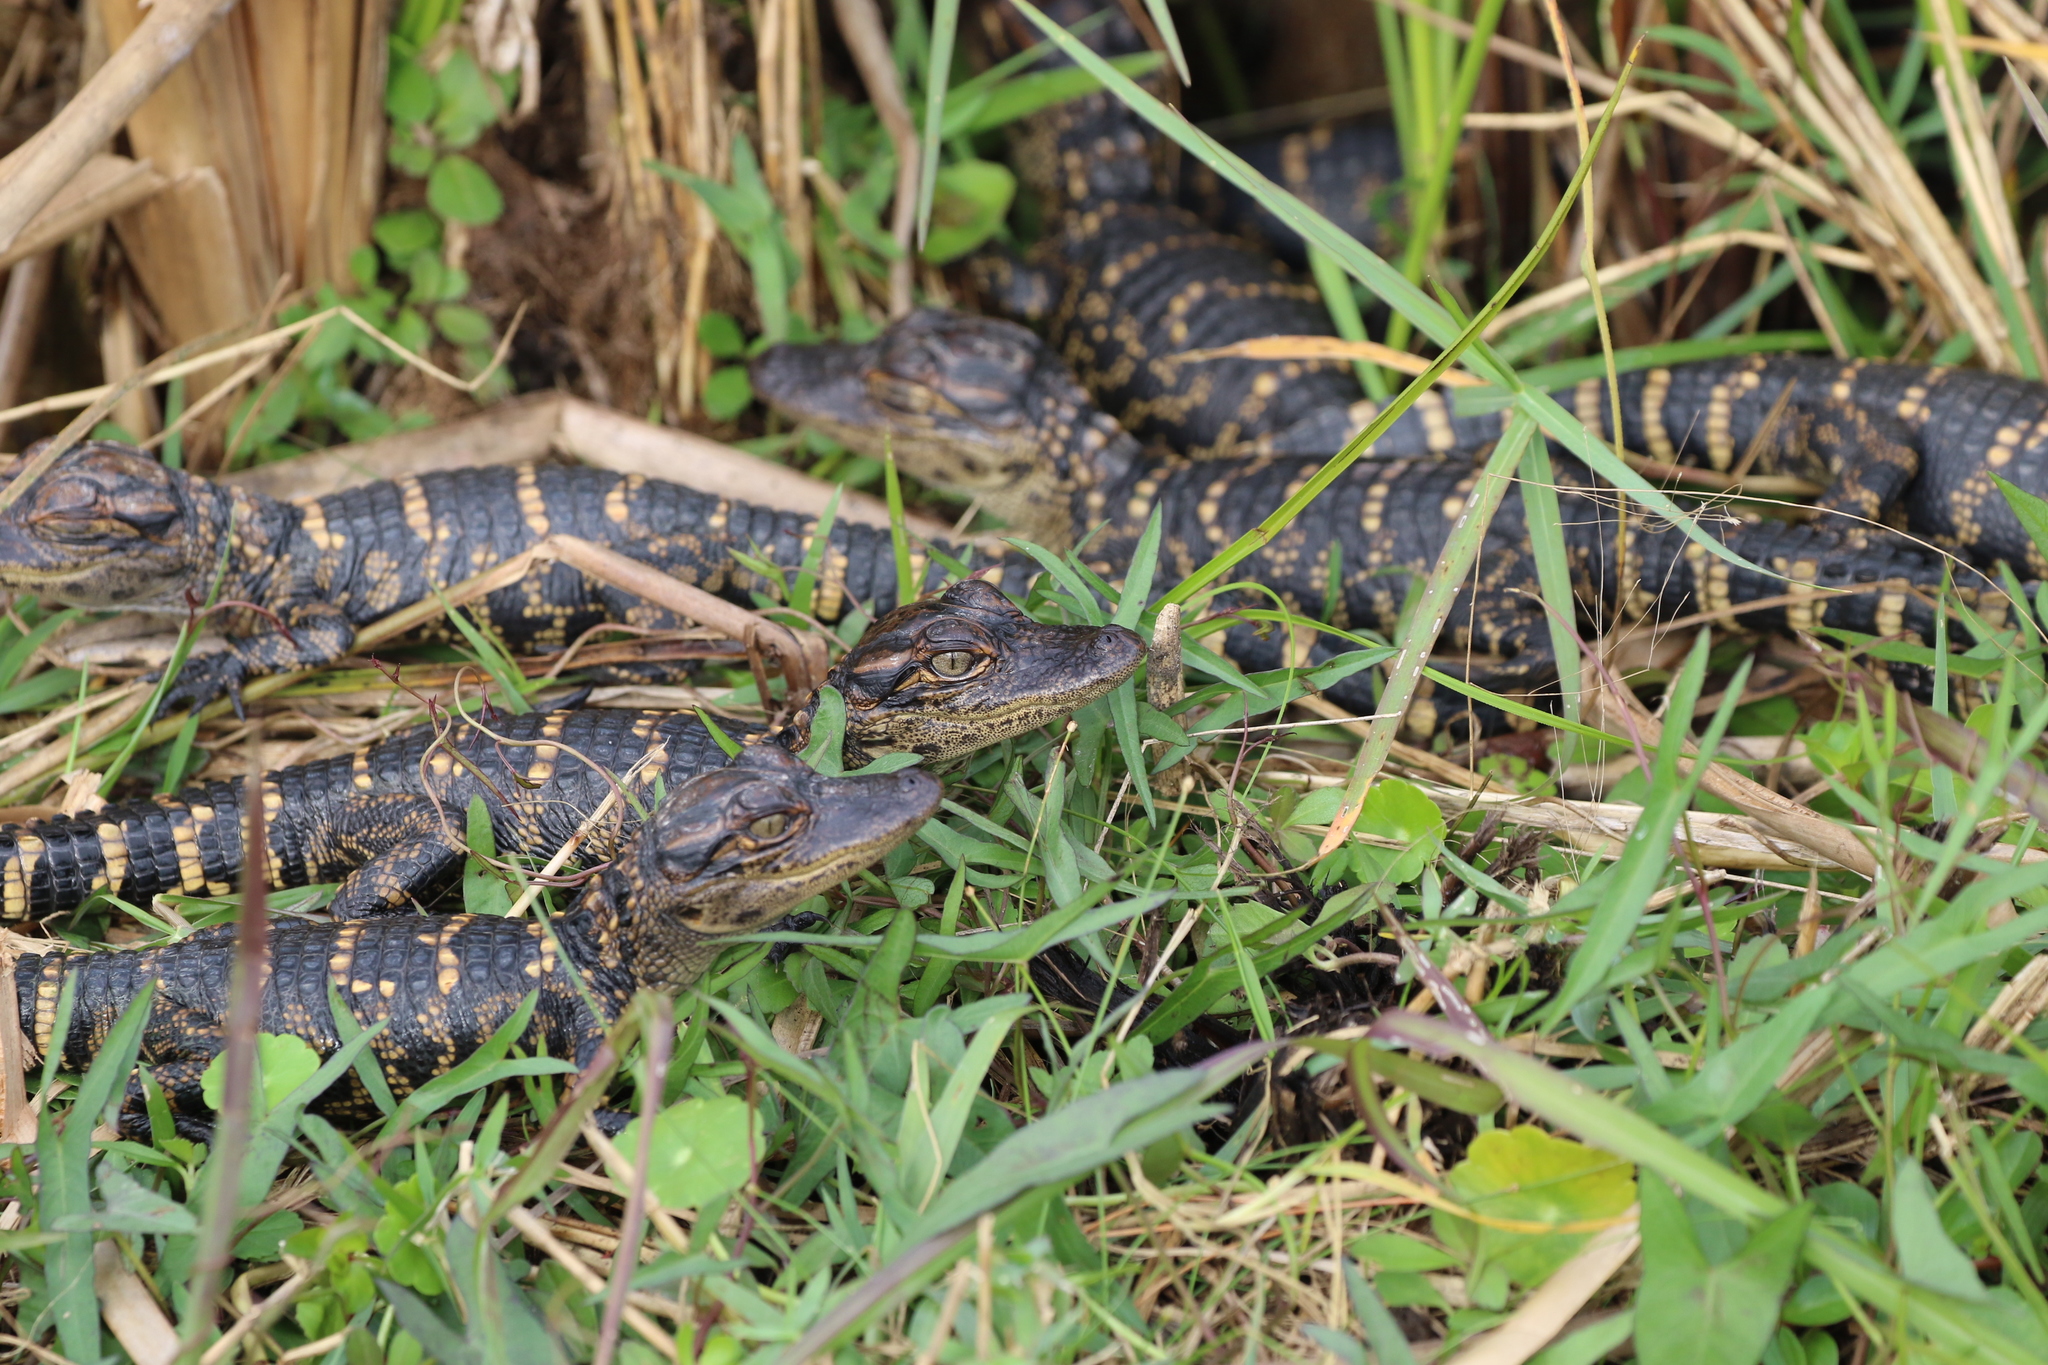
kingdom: Animalia
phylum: Chordata
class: Crocodylia
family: Alligatoridae
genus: Alligator
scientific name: Alligator mississippiensis
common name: American alligator
